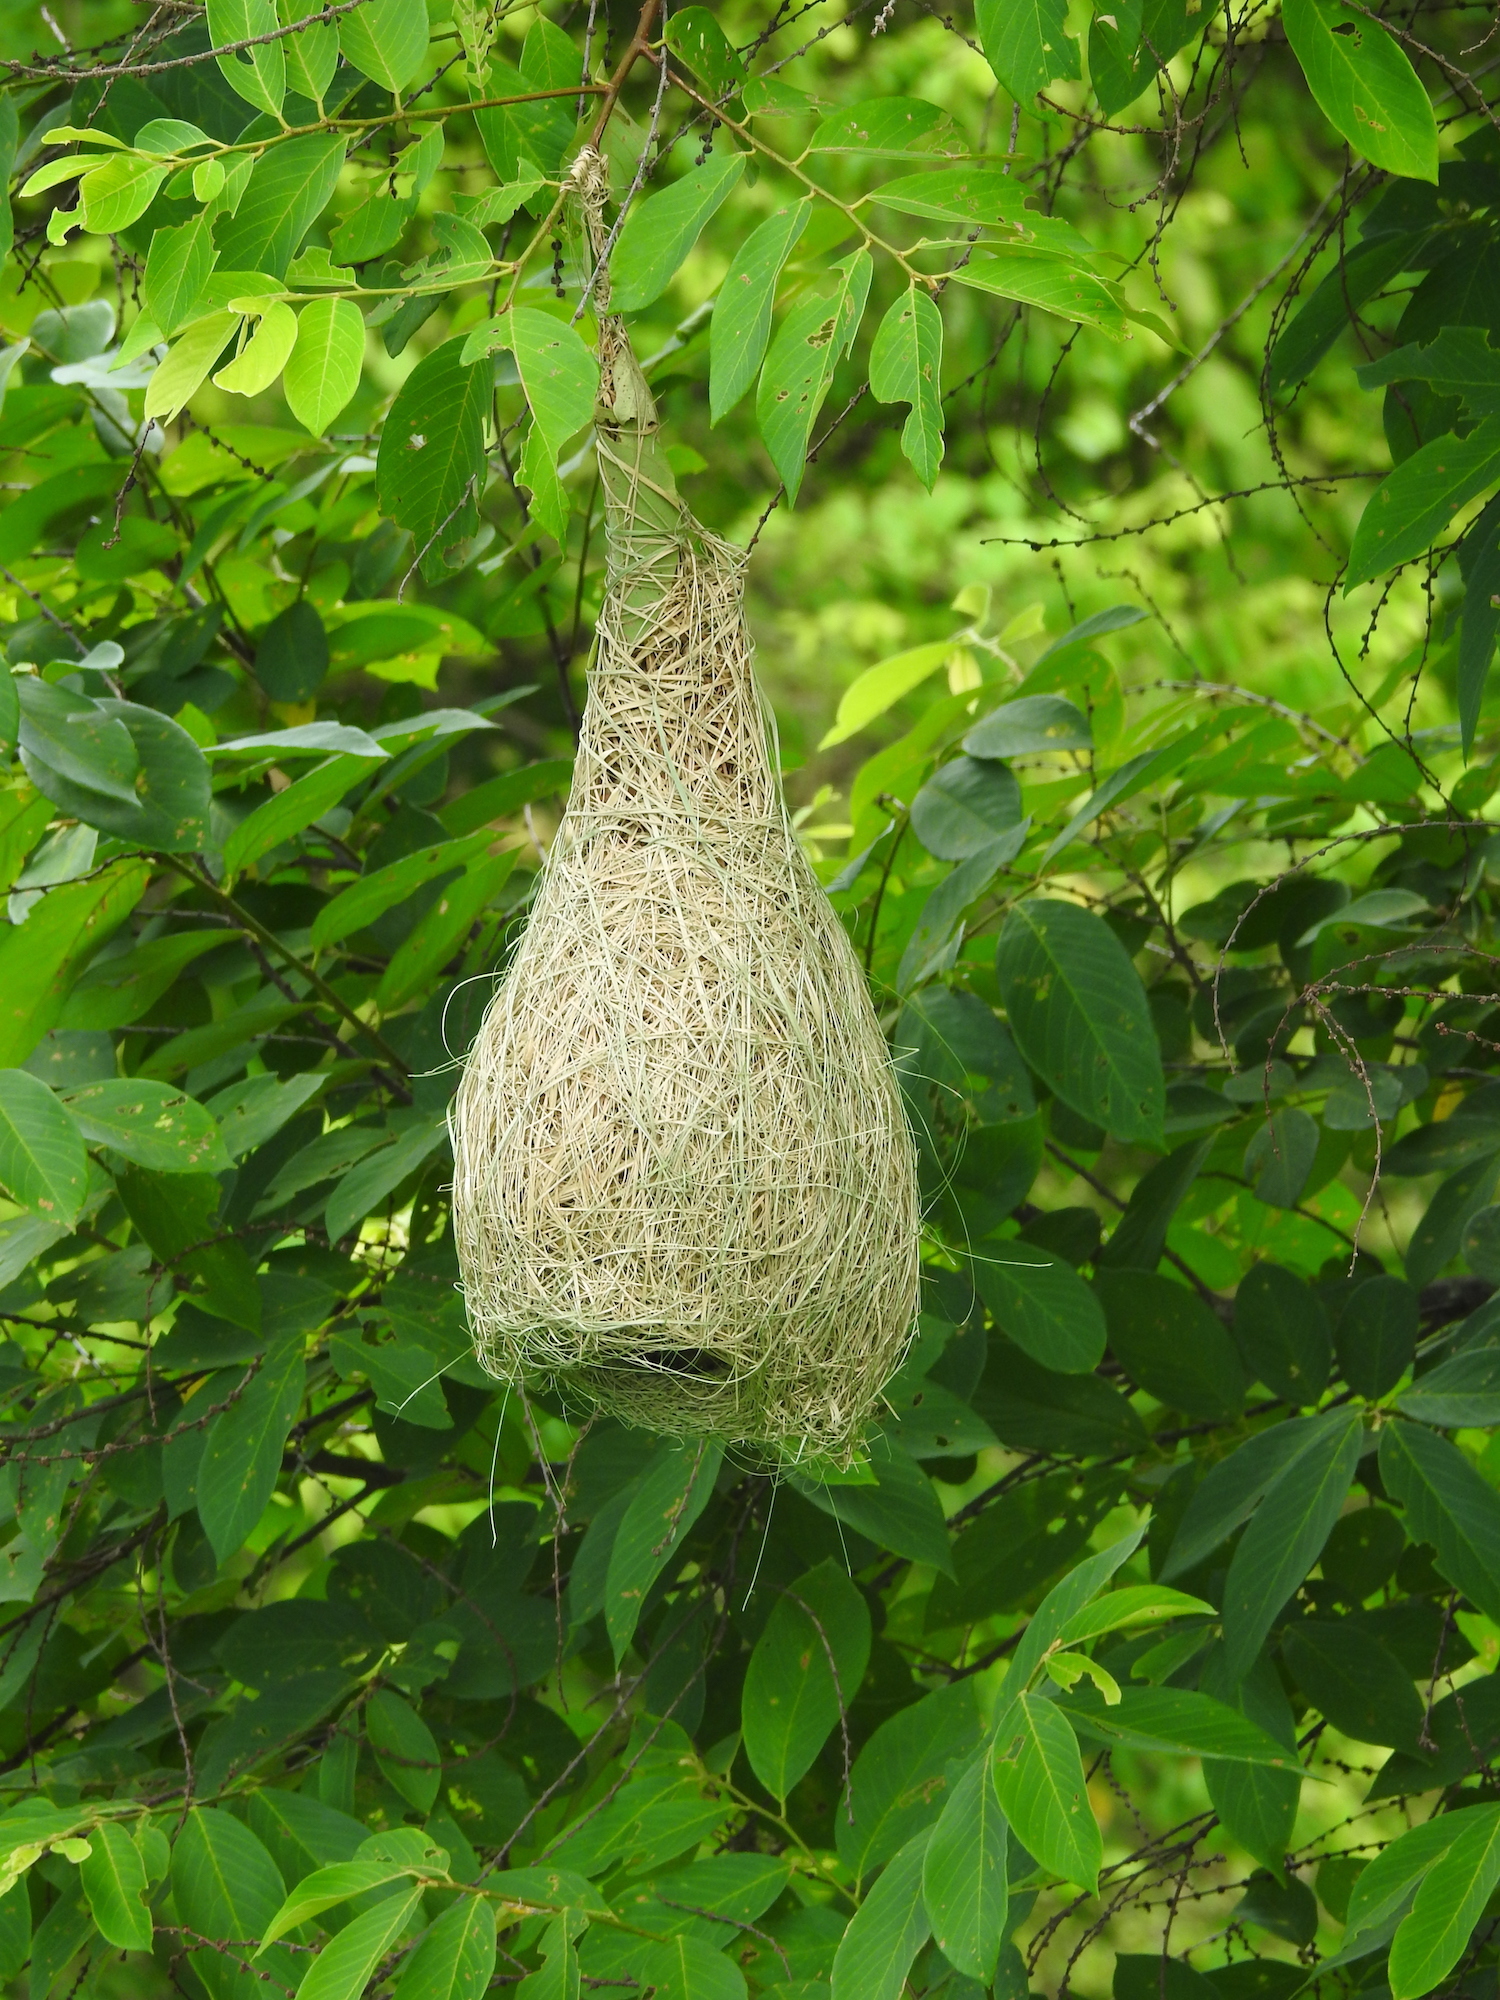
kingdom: Animalia
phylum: Chordata
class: Aves
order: Passeriformes
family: Ploceidae
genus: Ploceus
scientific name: Ploceus philippinus
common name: Baya weaver
